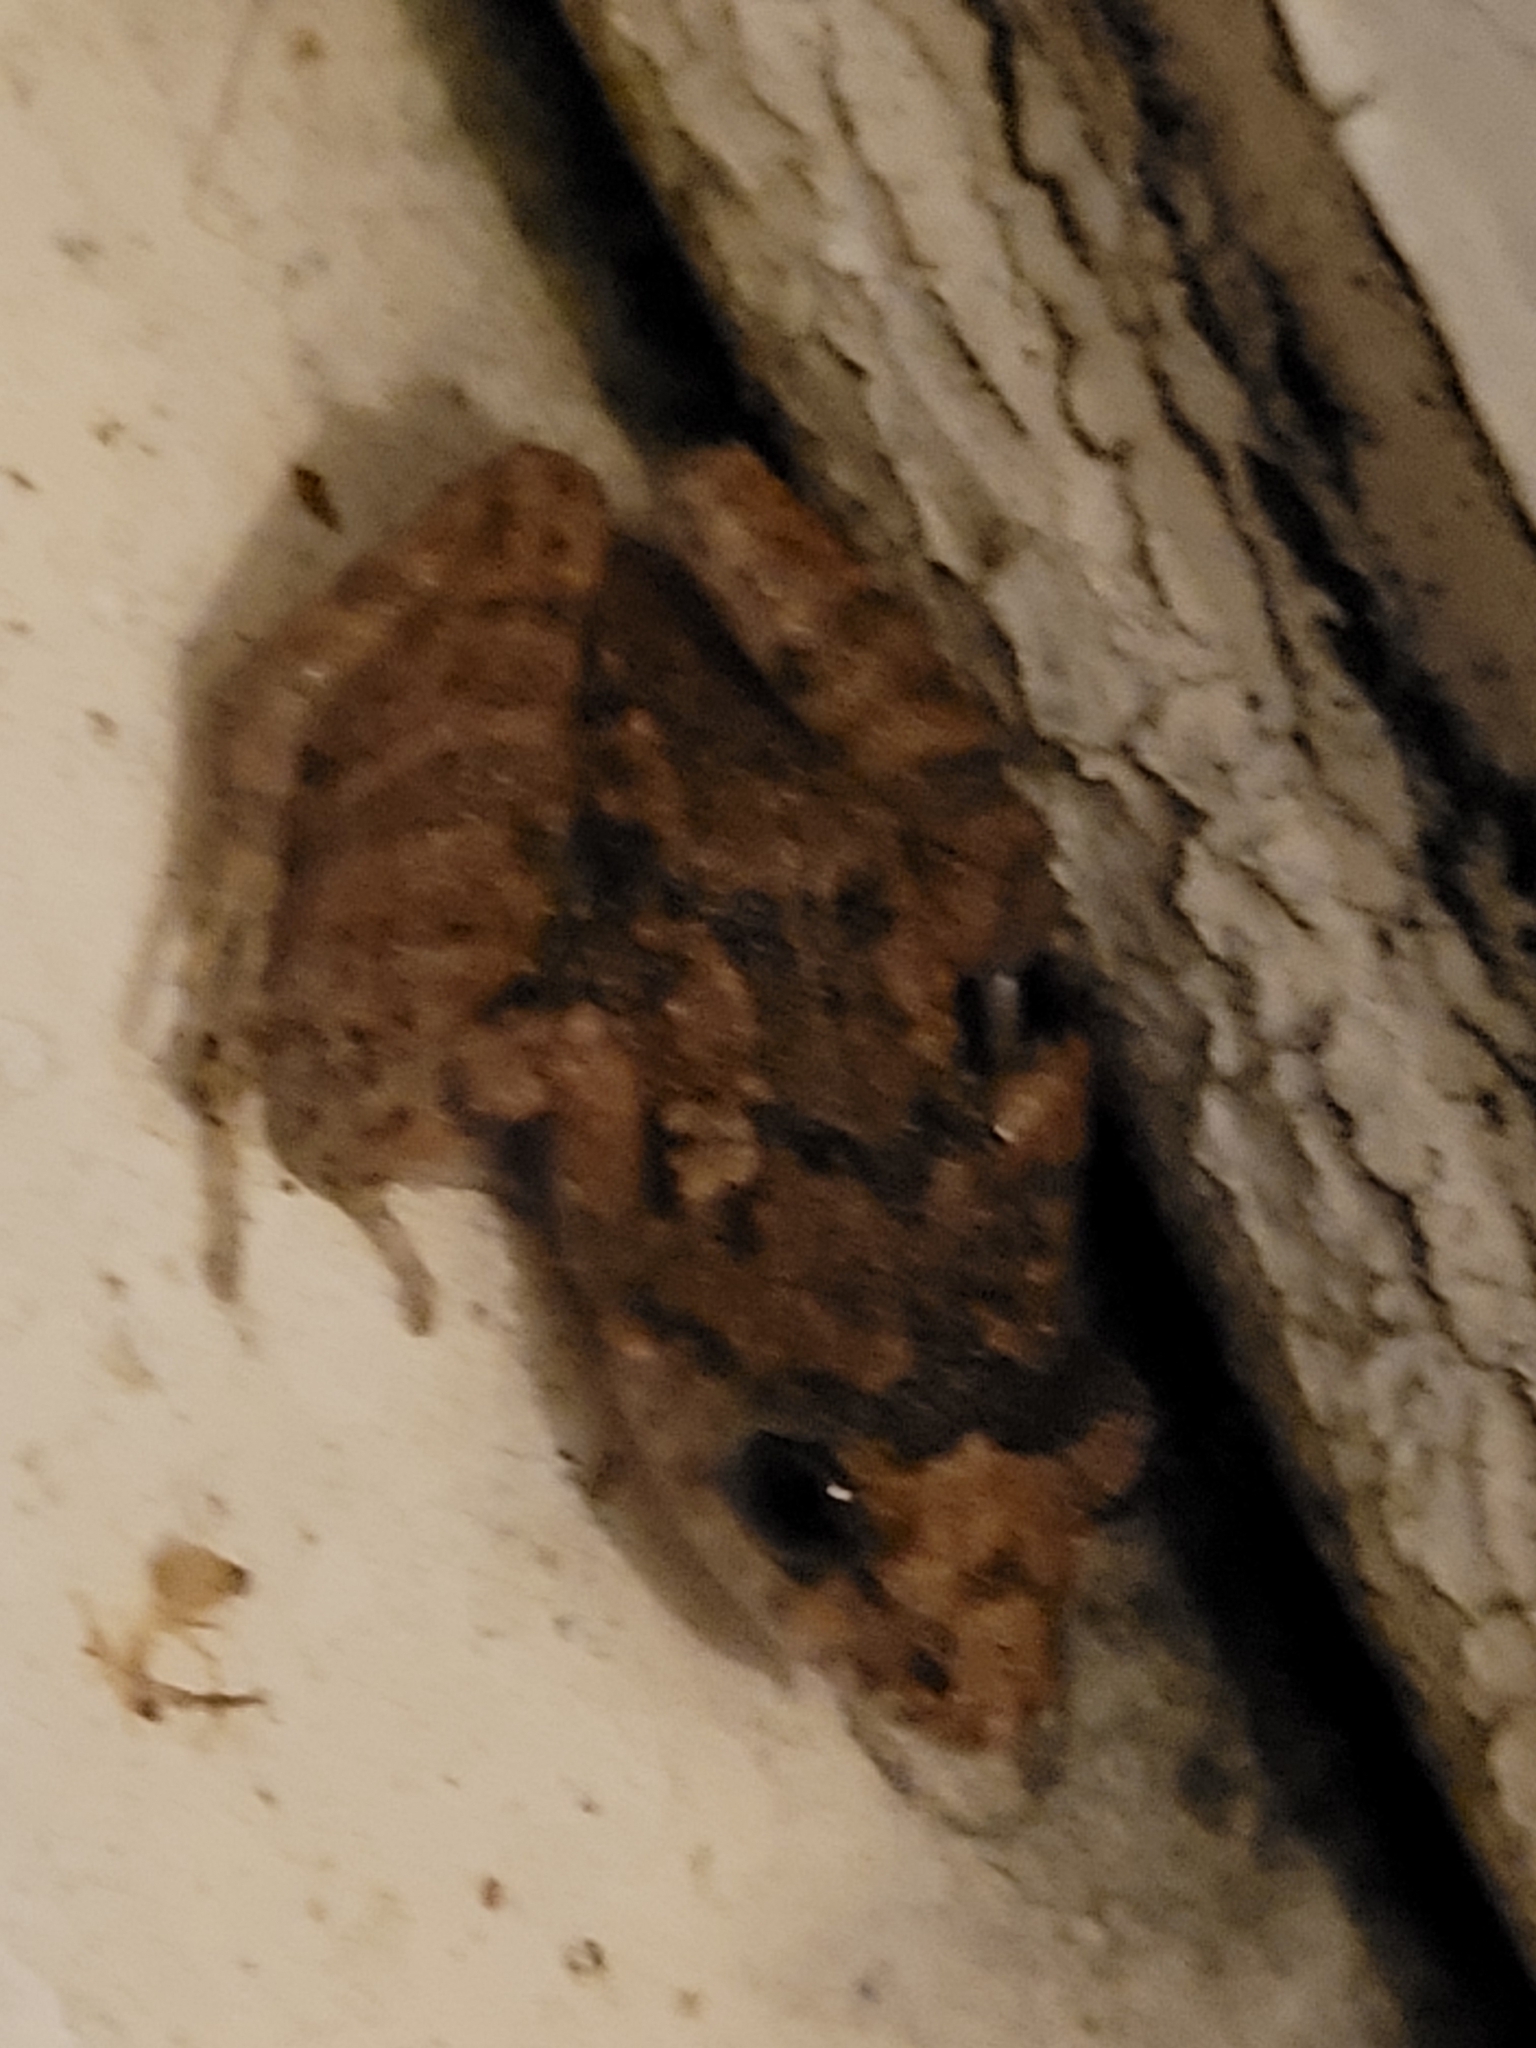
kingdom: Animalia
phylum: Chordata
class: Amphibia
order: Anura
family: Eleutherodactylidae
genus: Eleutherodactylus
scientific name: Eleutherodactylus planirostris
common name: Greenhouse frog
